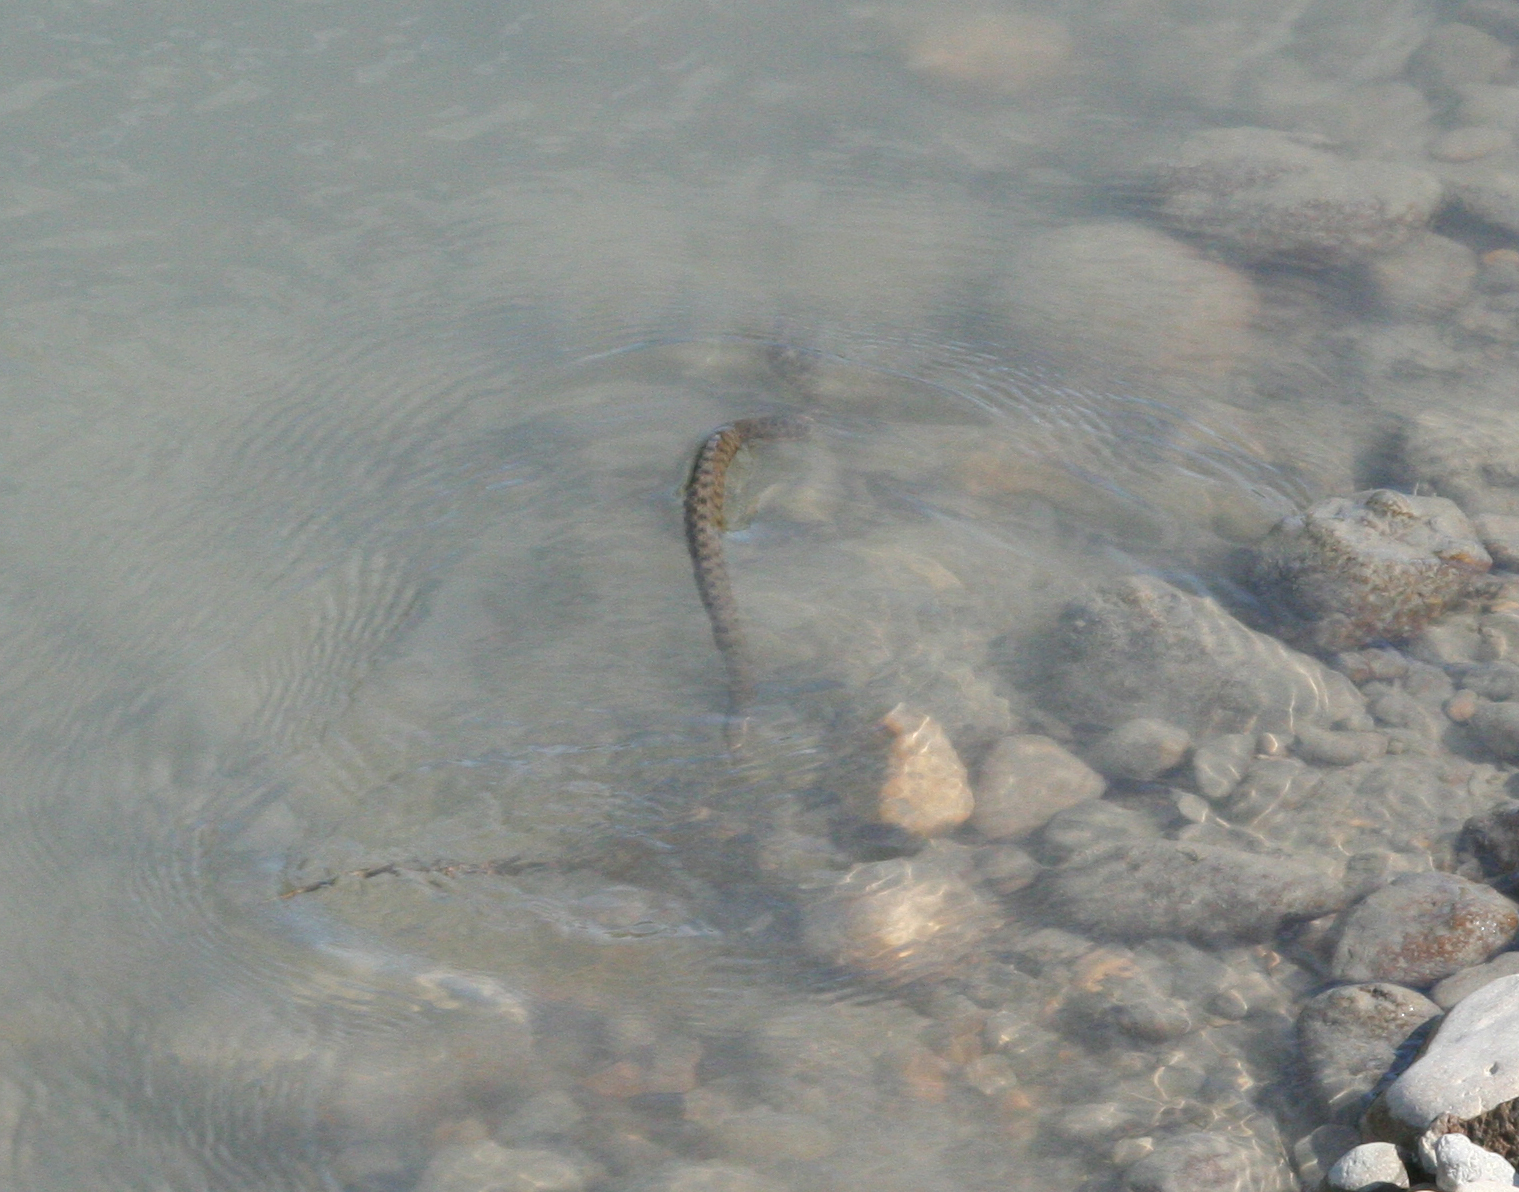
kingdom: Animalia
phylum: Chordata
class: Squamata
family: Colubridae
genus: Natrix
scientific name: Natrix tessellata
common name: Dice snake
